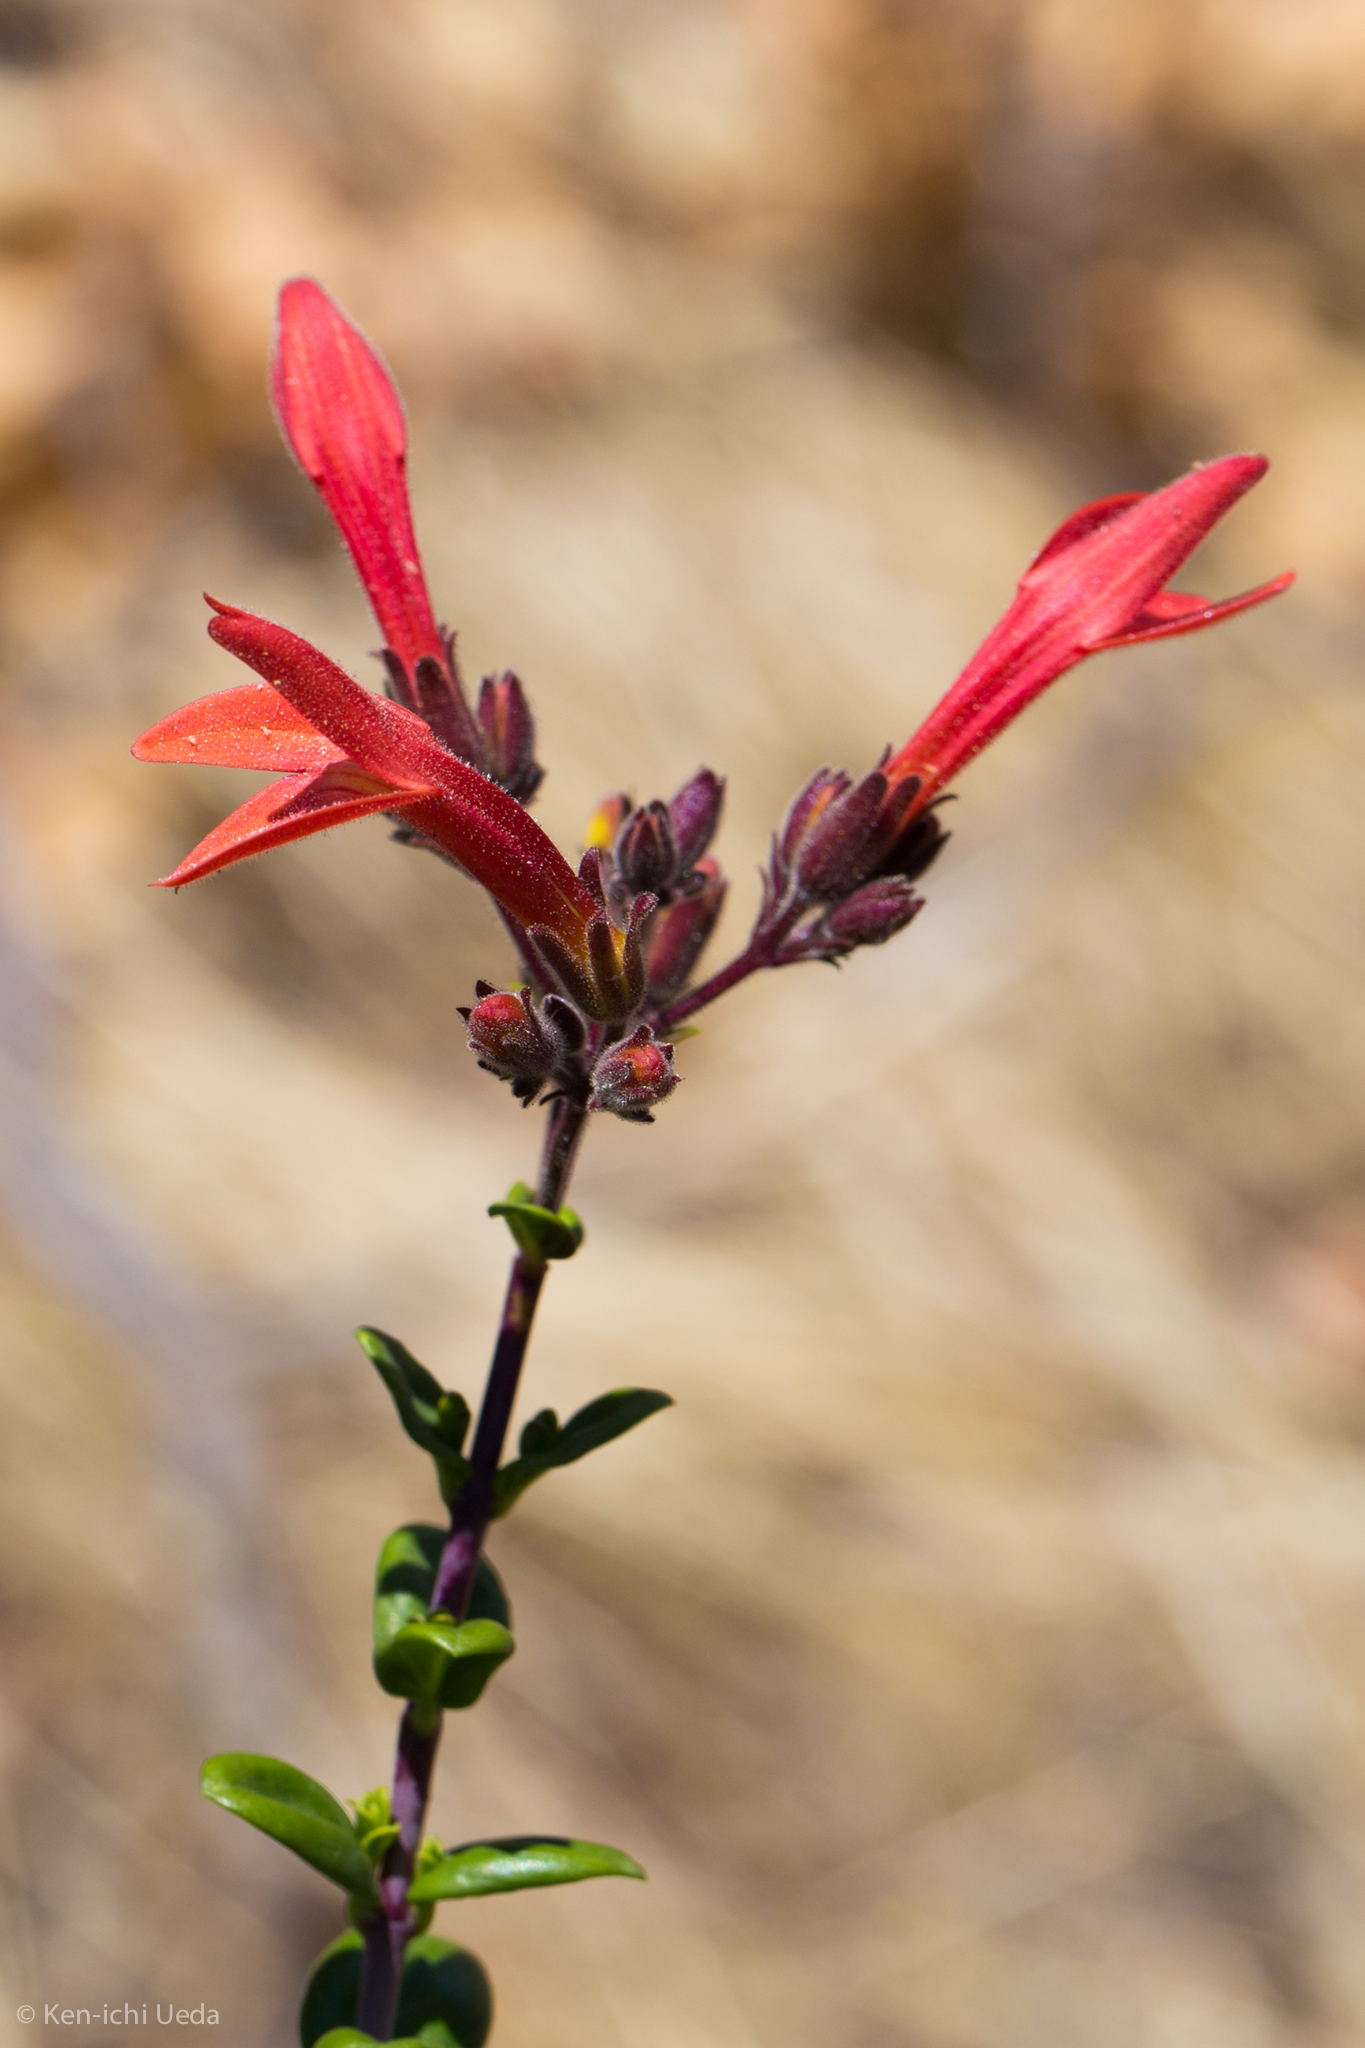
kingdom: Plantae
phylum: Tracheophyta
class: Magnoliopsida
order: Lamiales
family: Plantaginaceae
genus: Keckiella
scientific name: Keckiella corymbosa
